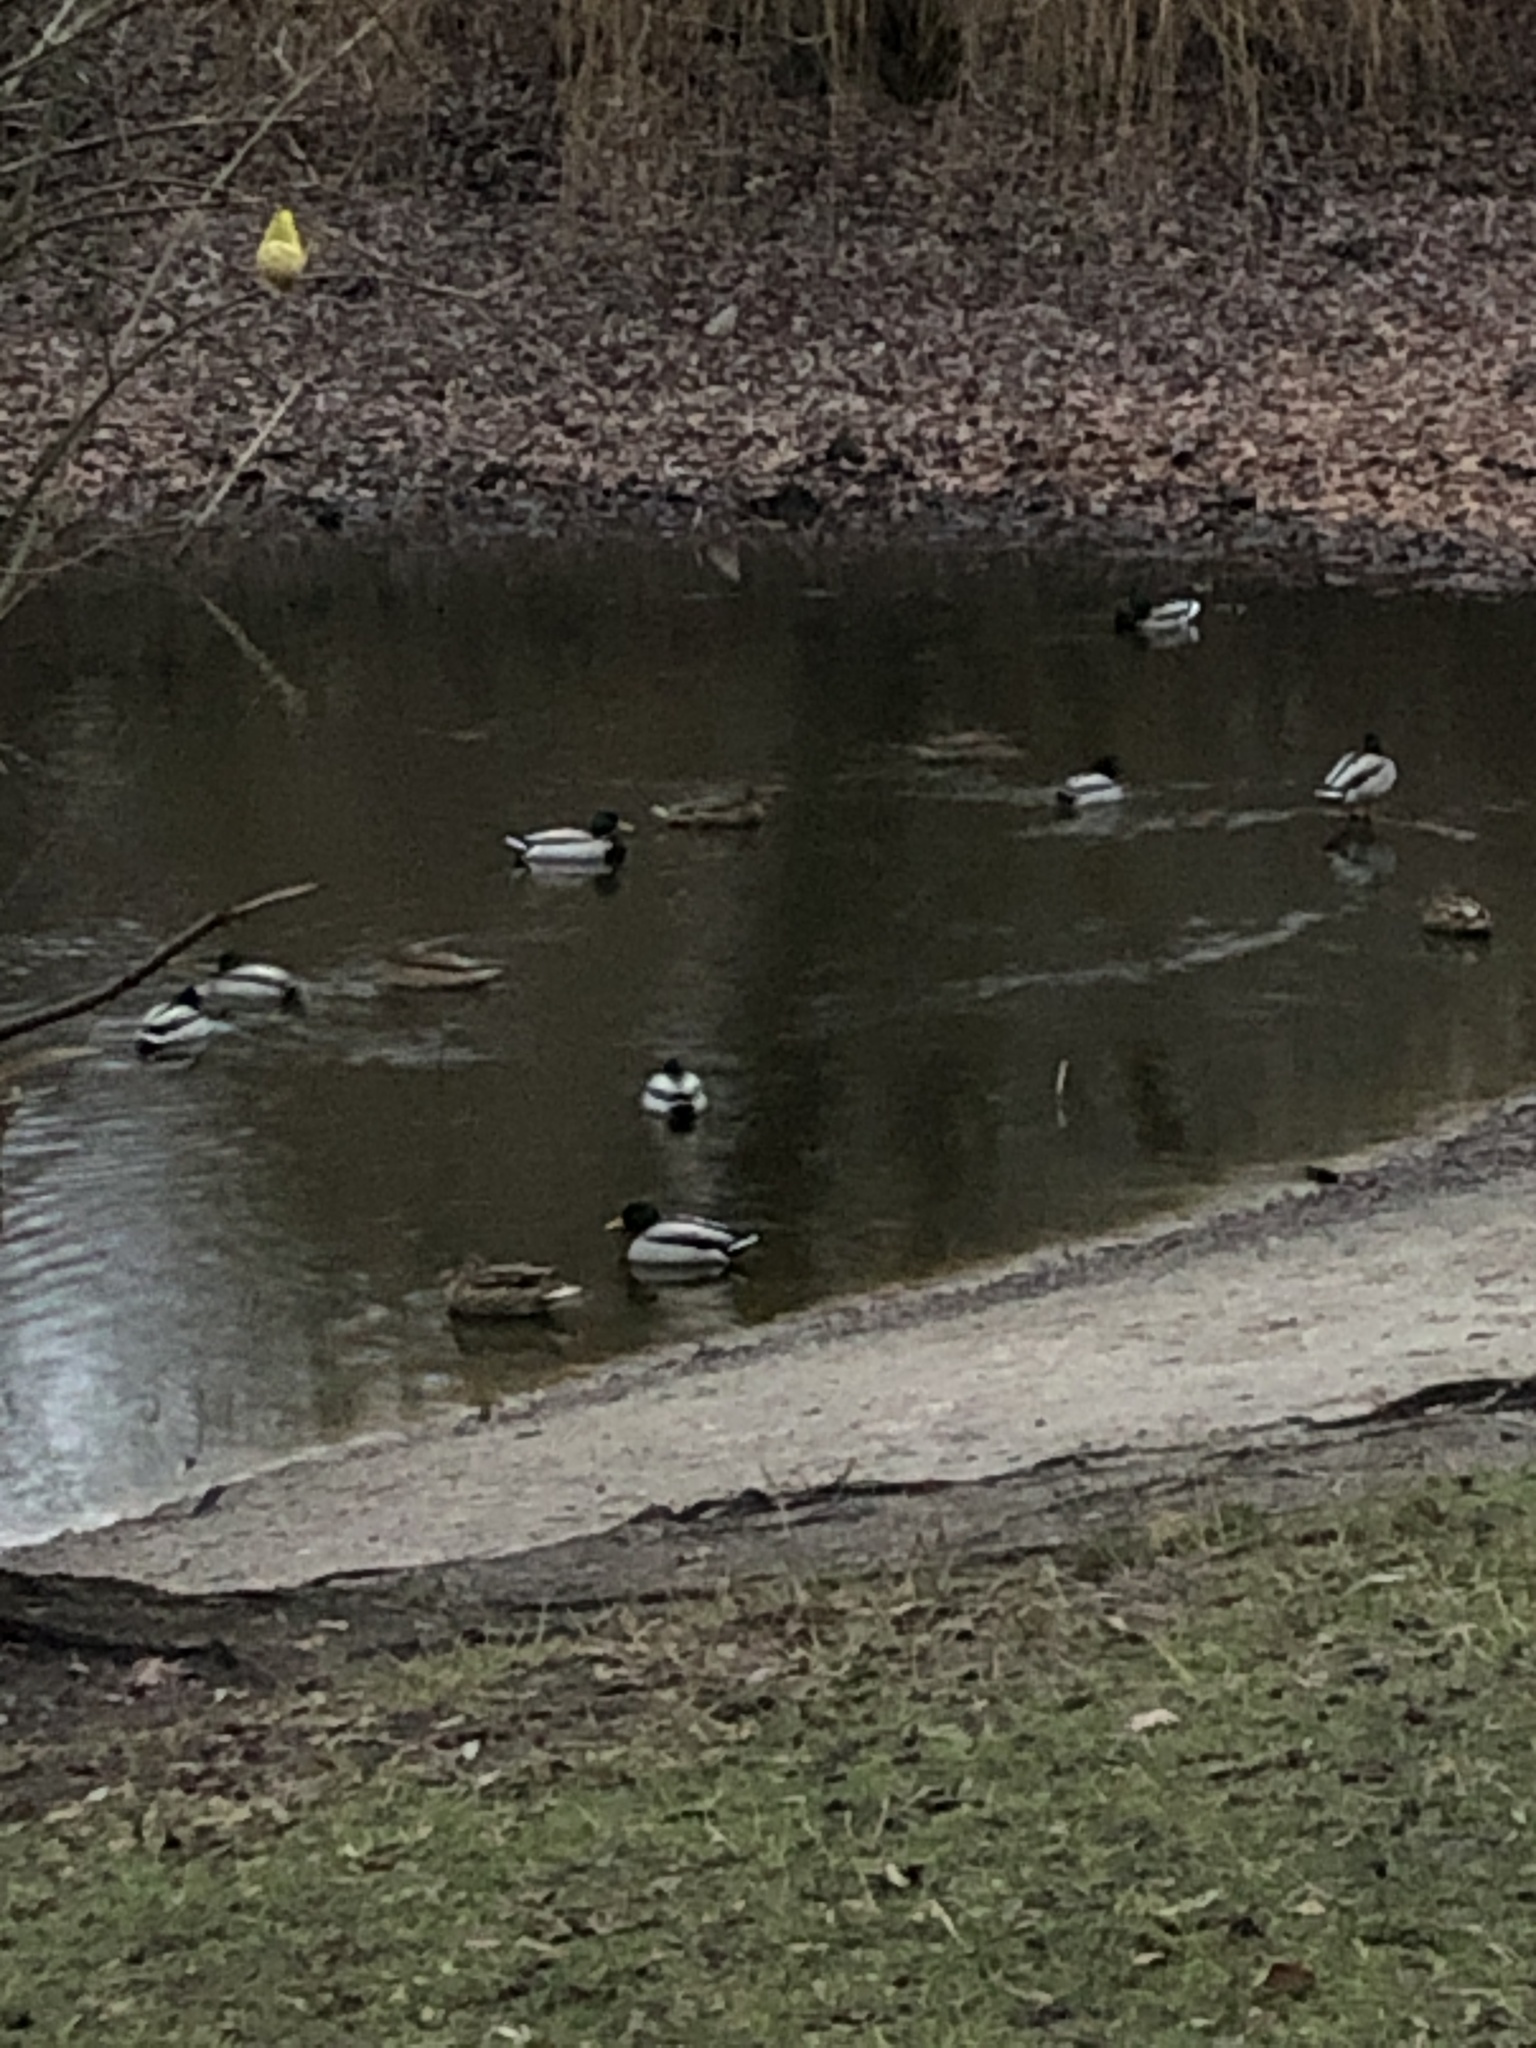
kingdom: Animalia
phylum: Chordata
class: Aves
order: Anseriformes
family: Anatidae
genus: Anas
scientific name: Anas platyrhynchos
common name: Mallard
